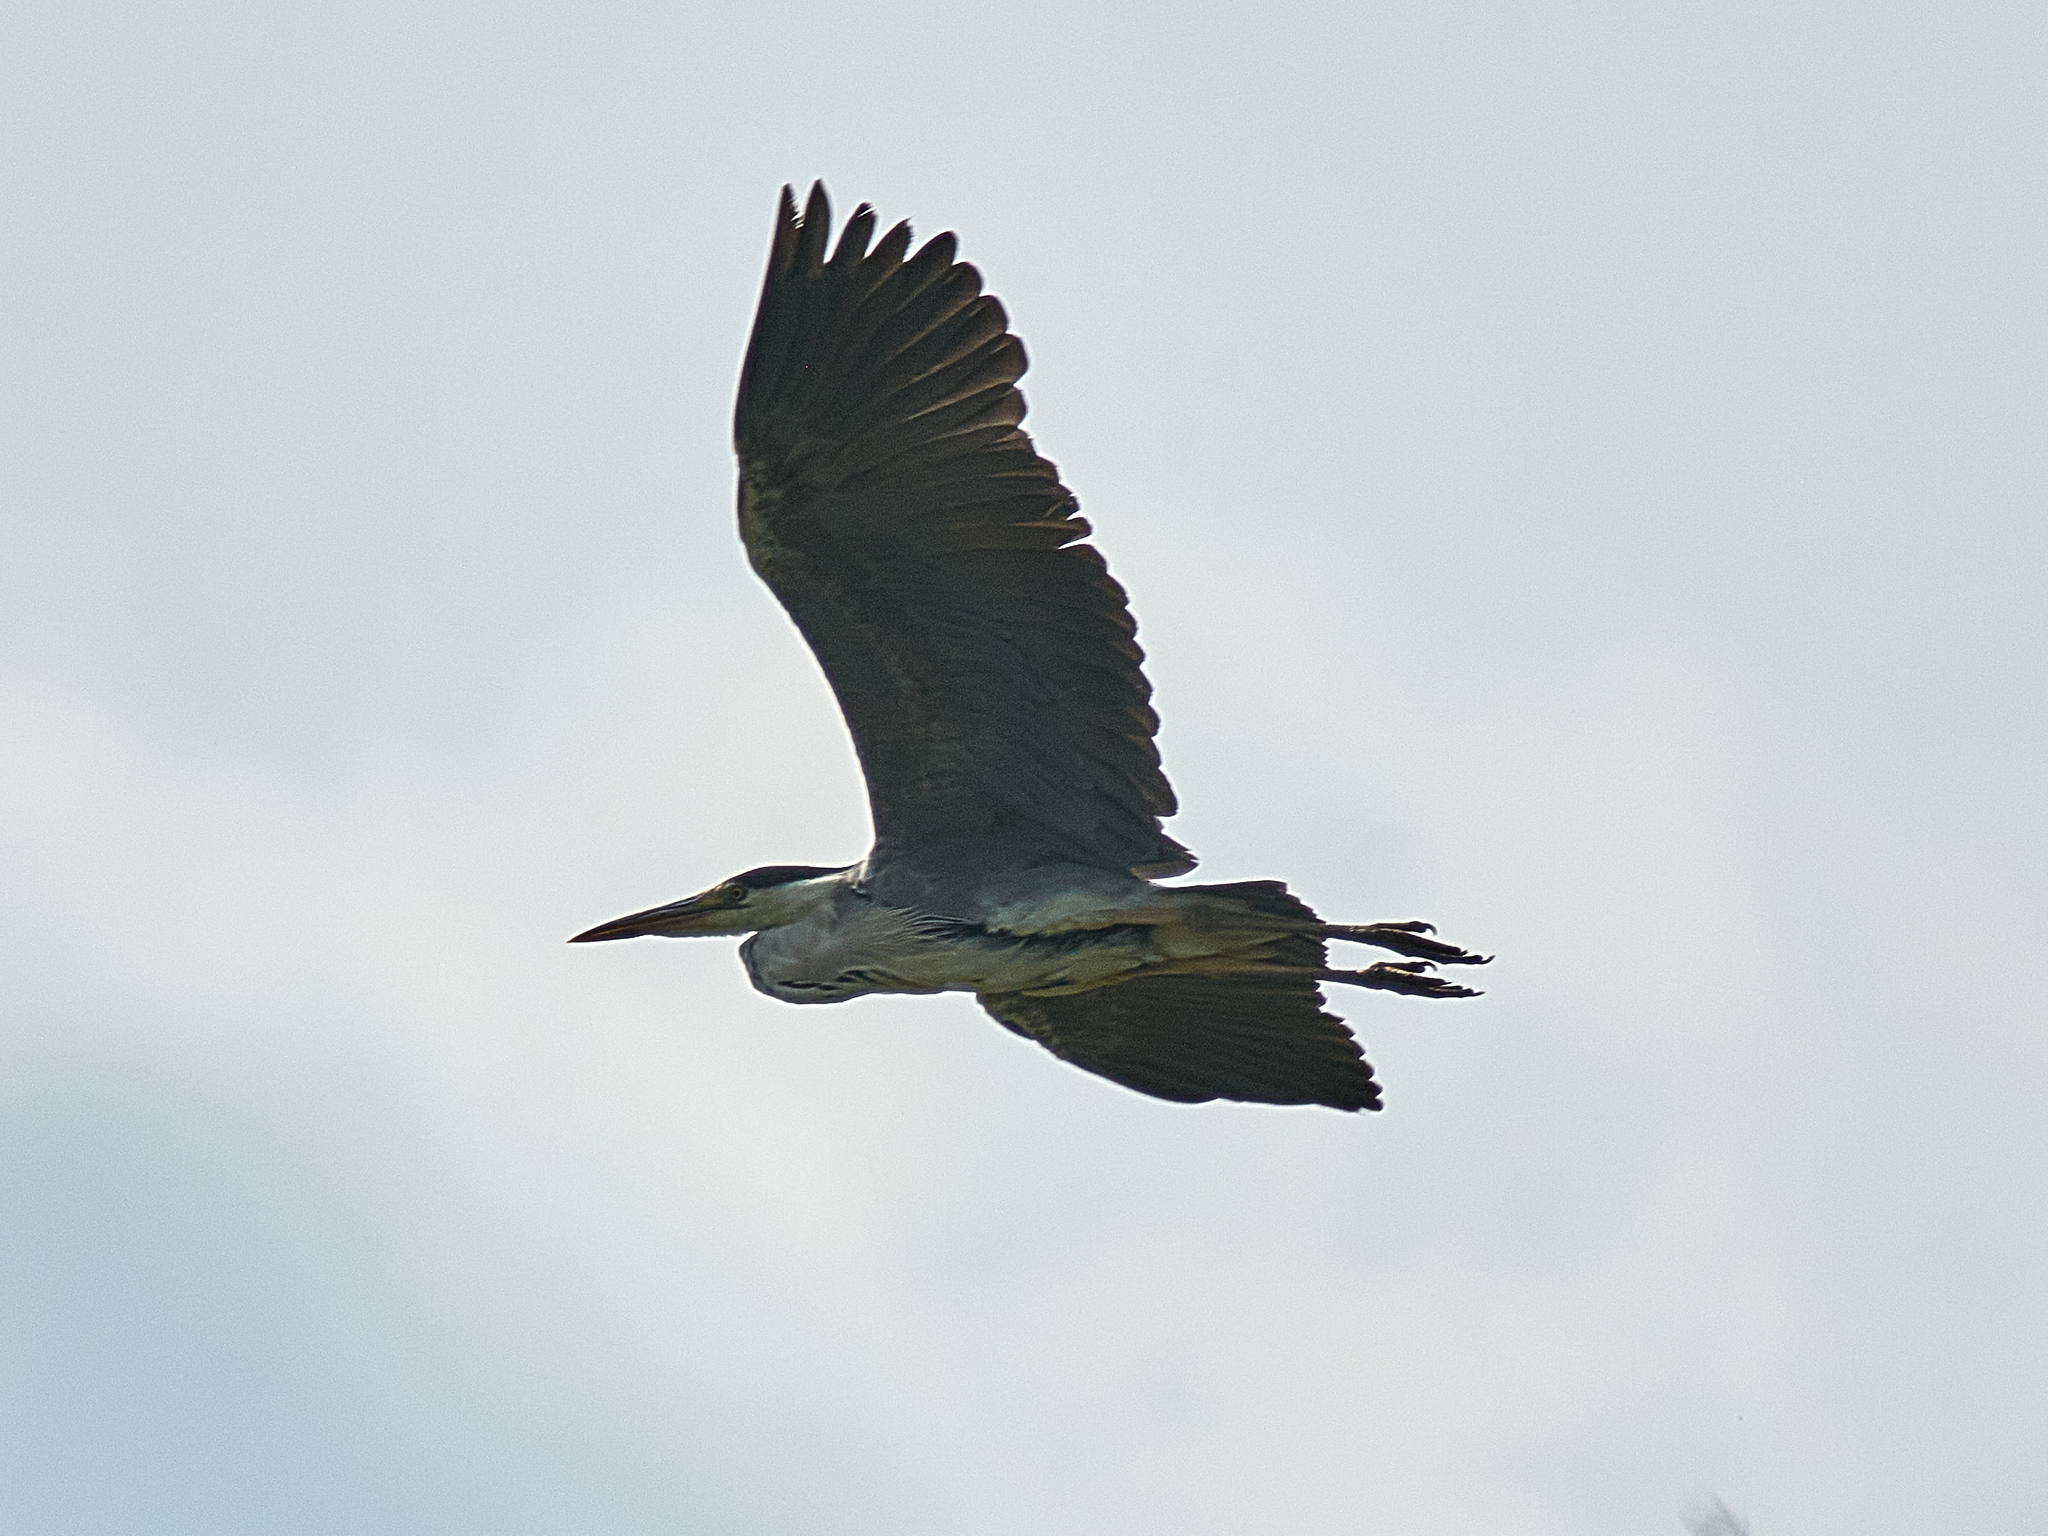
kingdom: Animalia
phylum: Chordata
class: Aves
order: Pelecaniformes
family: Ardeidae
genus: Ardea
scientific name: Ardea cinerea
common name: Grey heron
